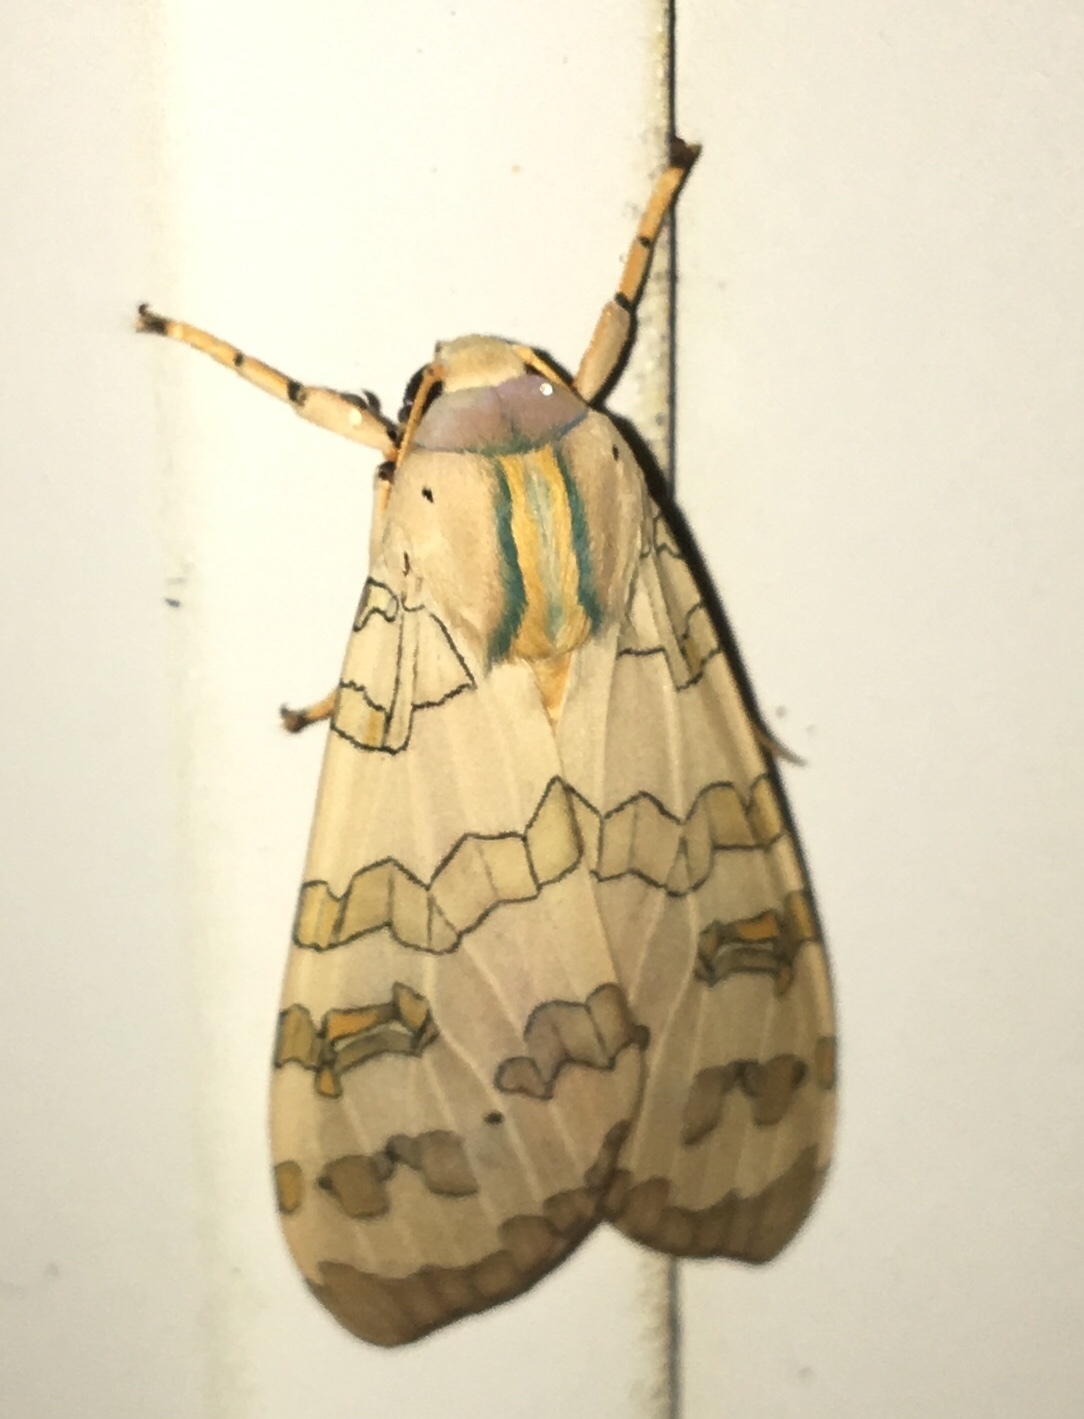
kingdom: Animalia
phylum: Arthropoda
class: Insecta
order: Lepidoptera
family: Erebidae
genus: Halysidota
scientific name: Halysidota
